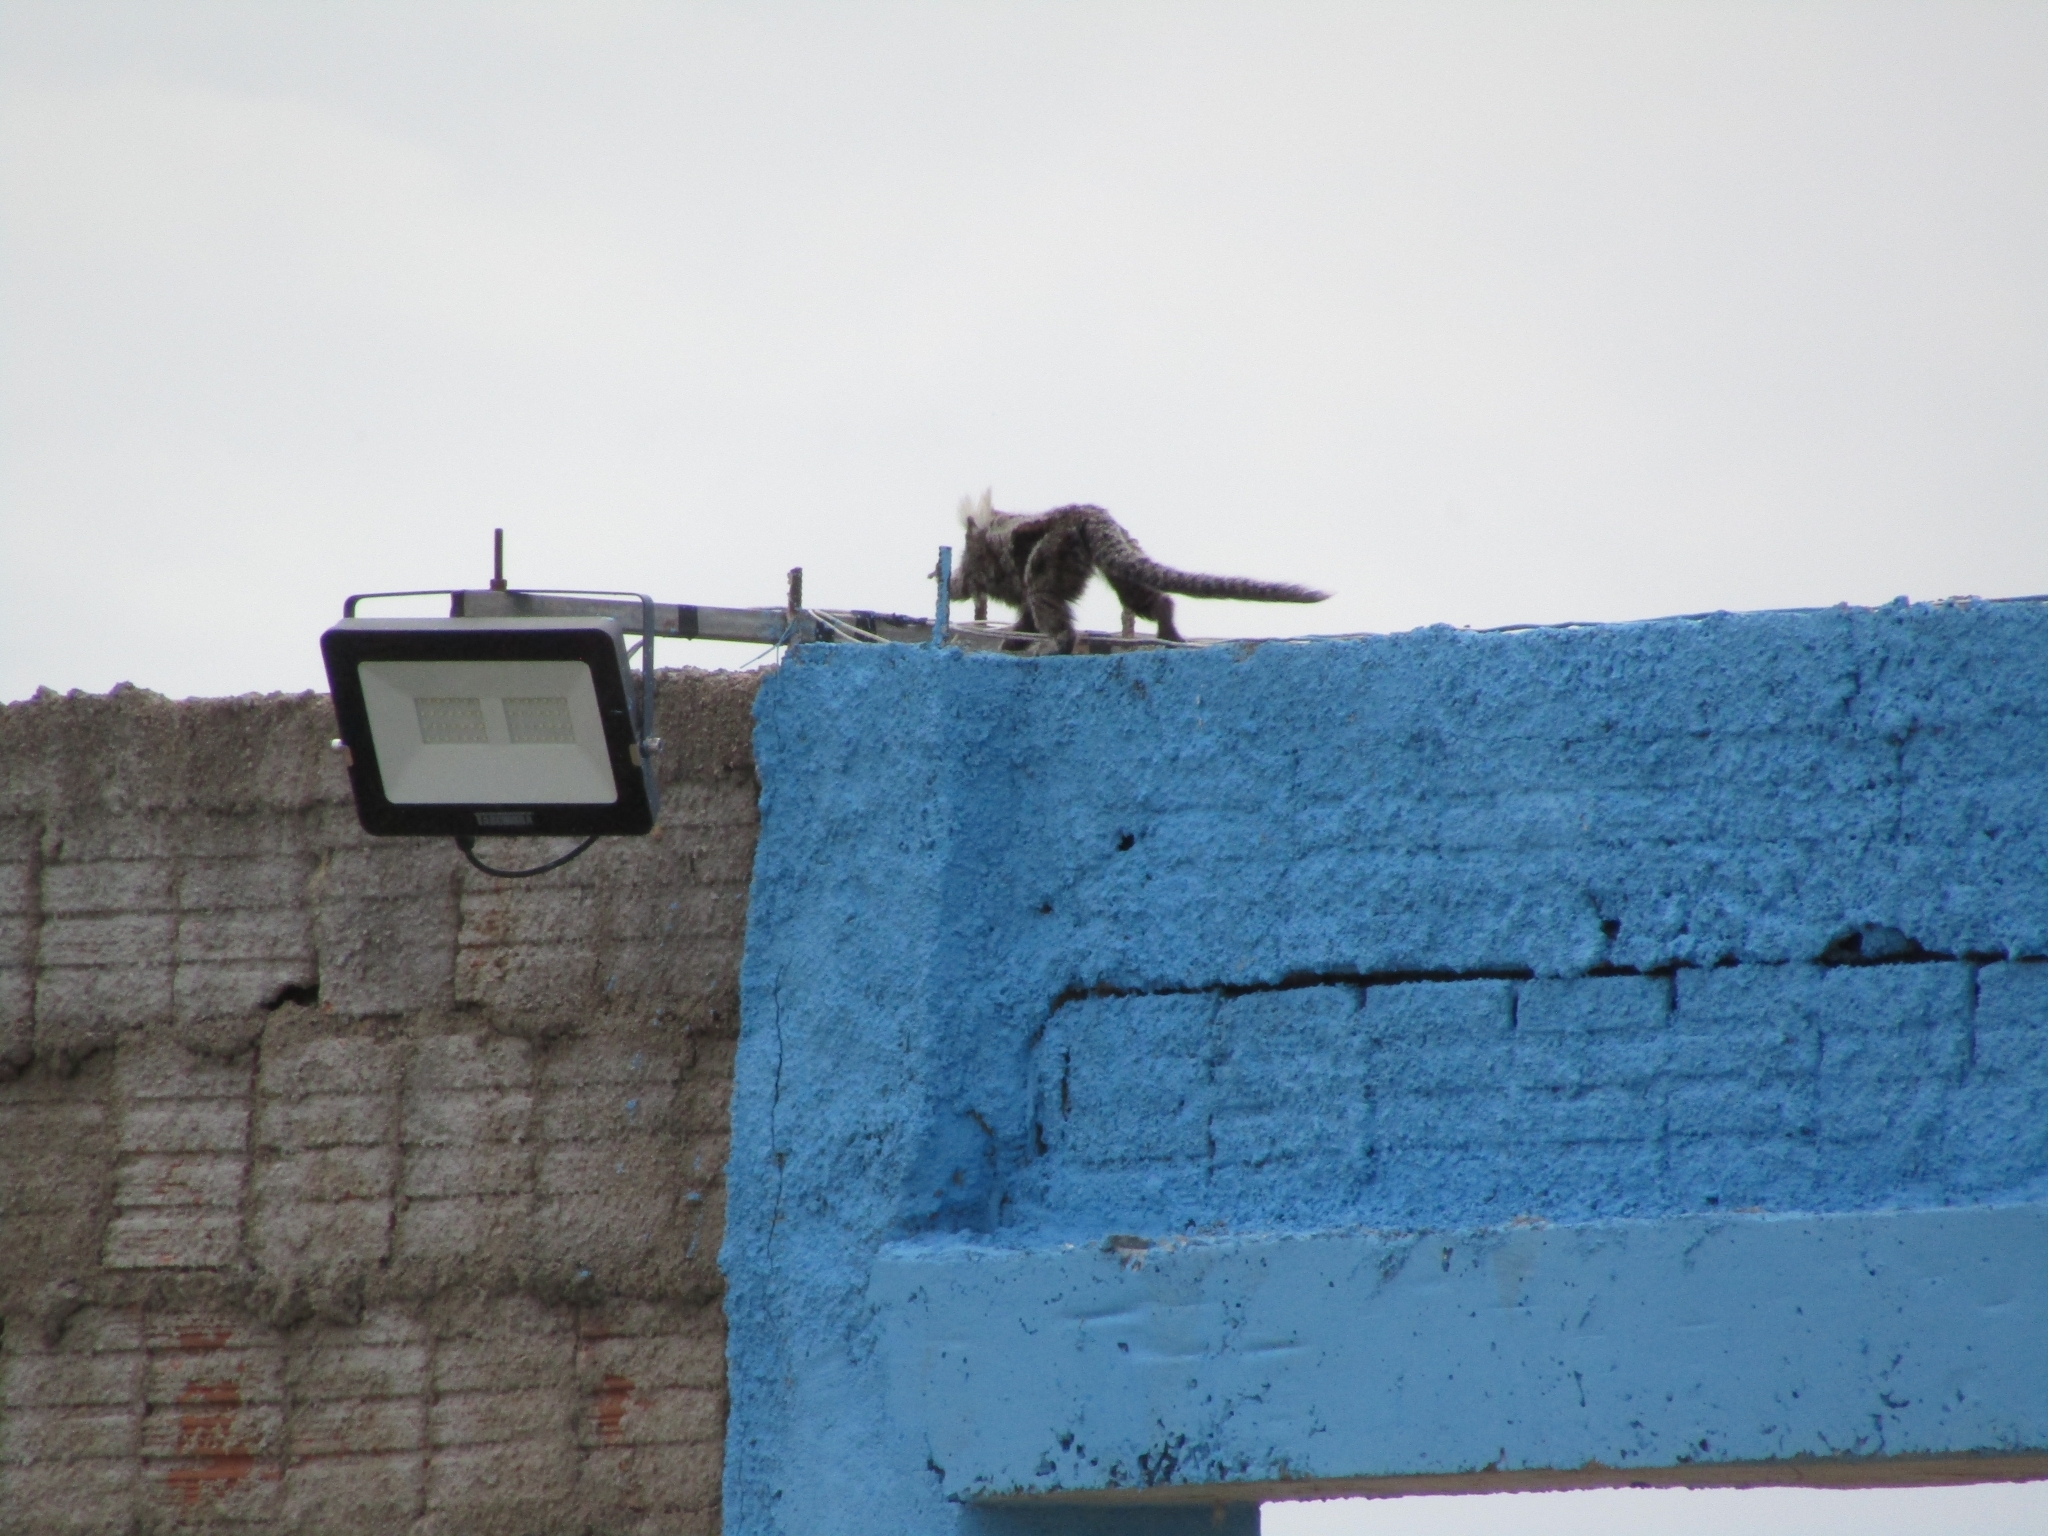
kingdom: Animalia
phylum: Chordata
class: Mammalia
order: Primates
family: Callitrichidae
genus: Callithrix
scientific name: Callithrix jacchus
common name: Common marmoset
